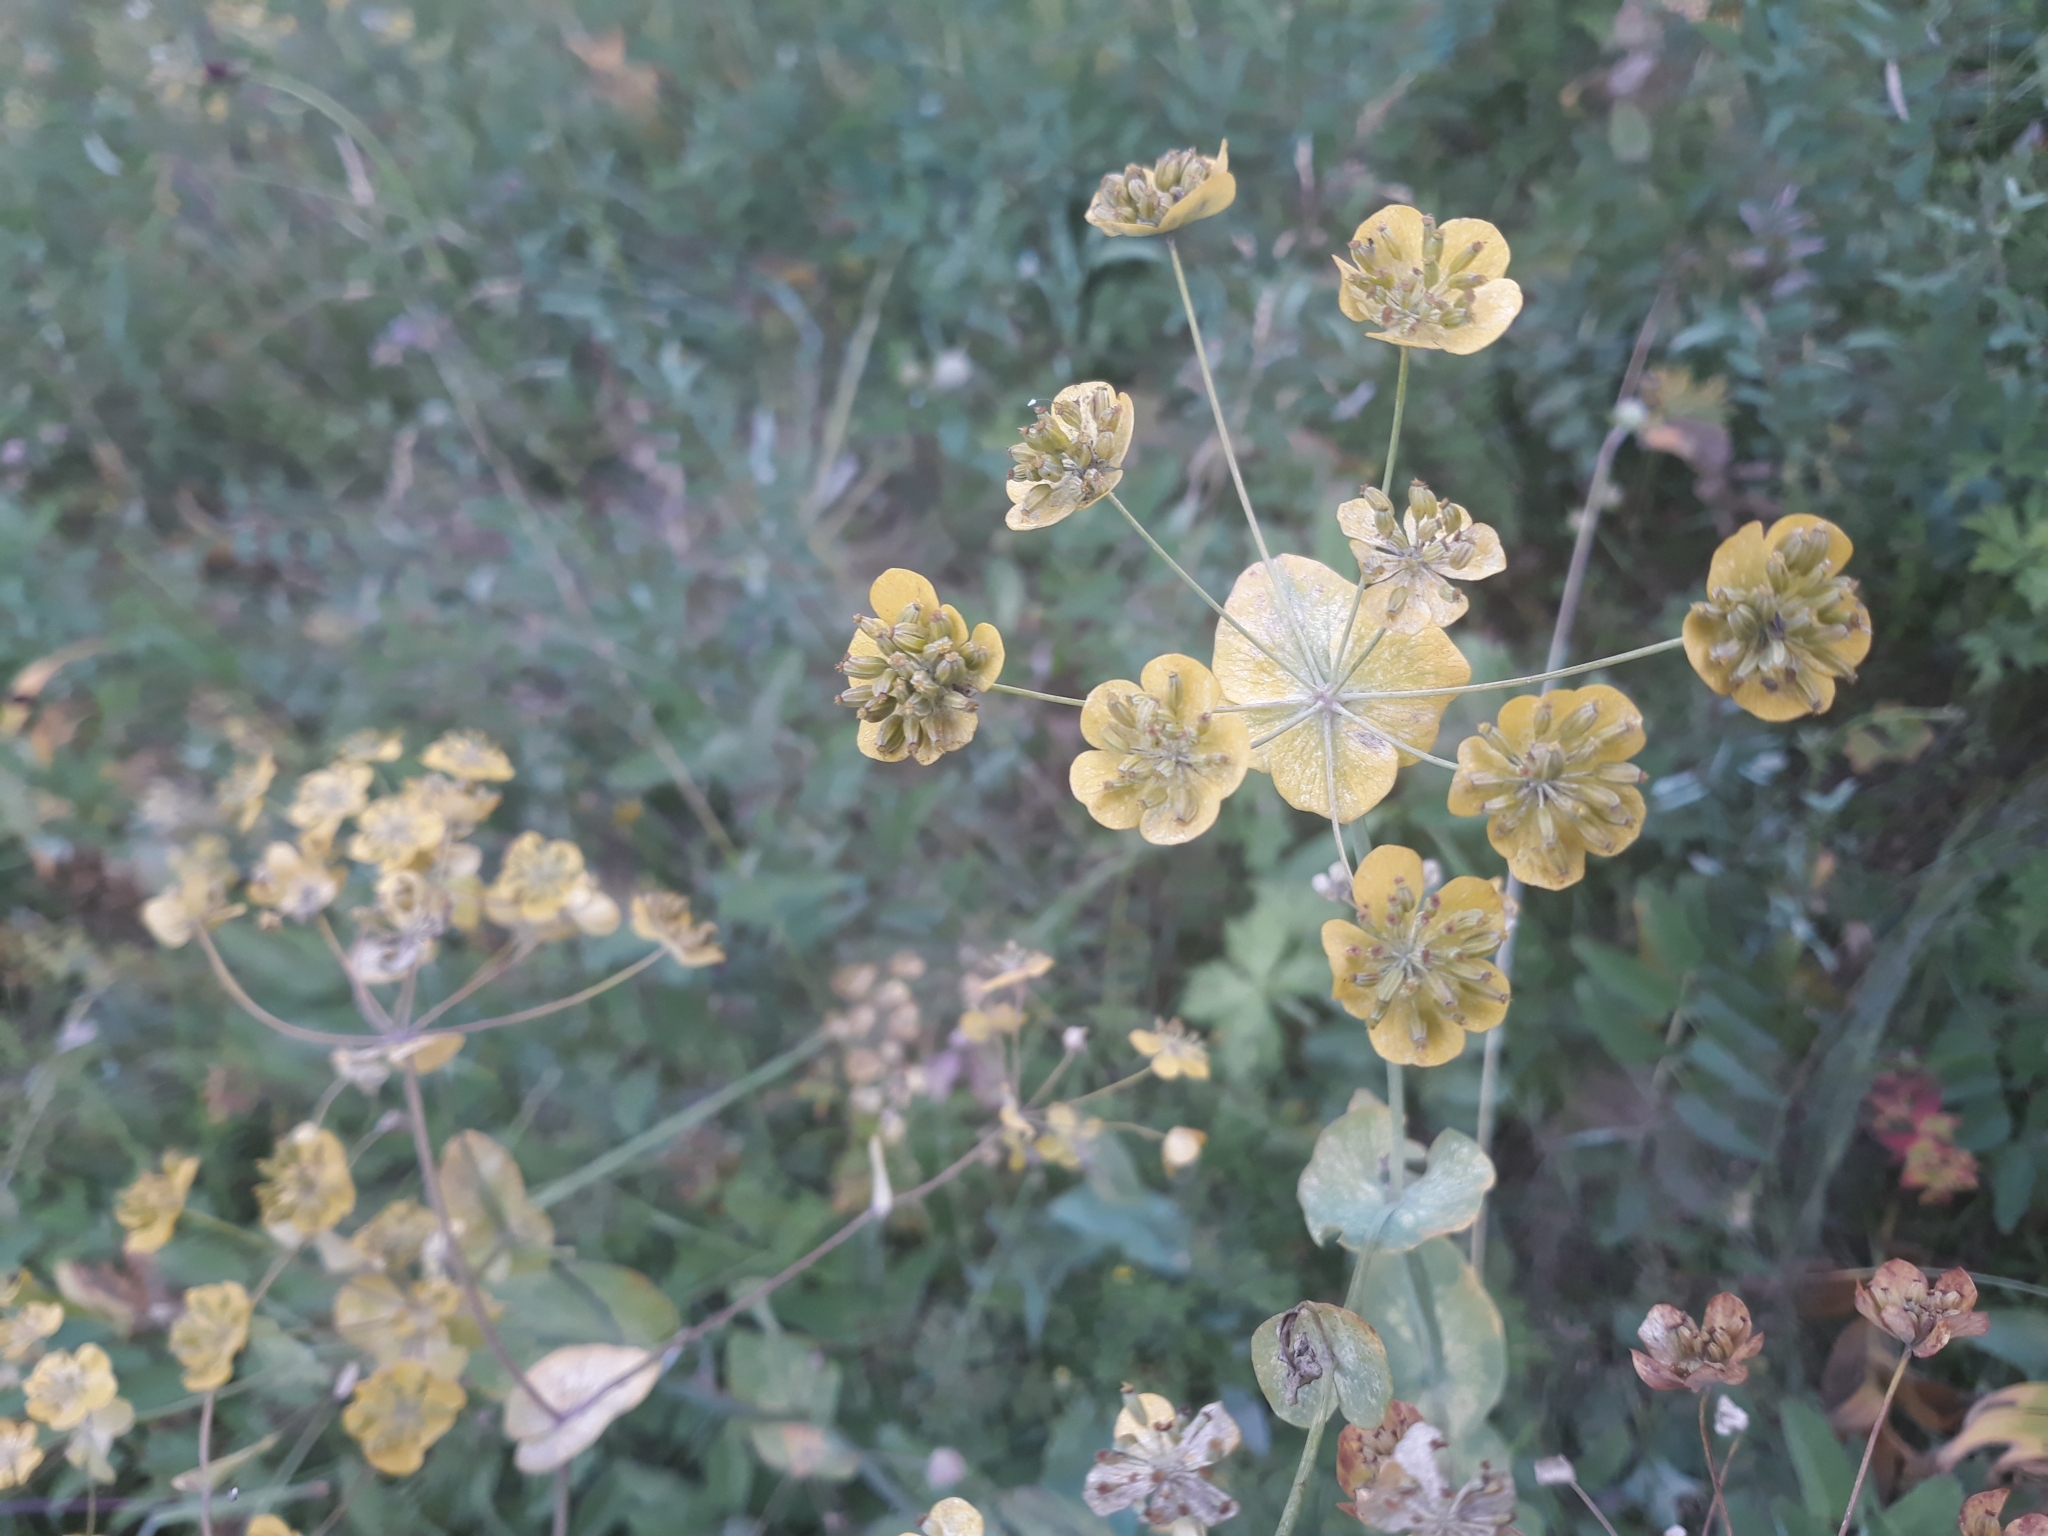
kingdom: Plantae
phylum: Tracheophyta
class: Magnoliopsida
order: Apiales
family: Apiaceae
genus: Bupleurum
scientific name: Bupleurum aureum
